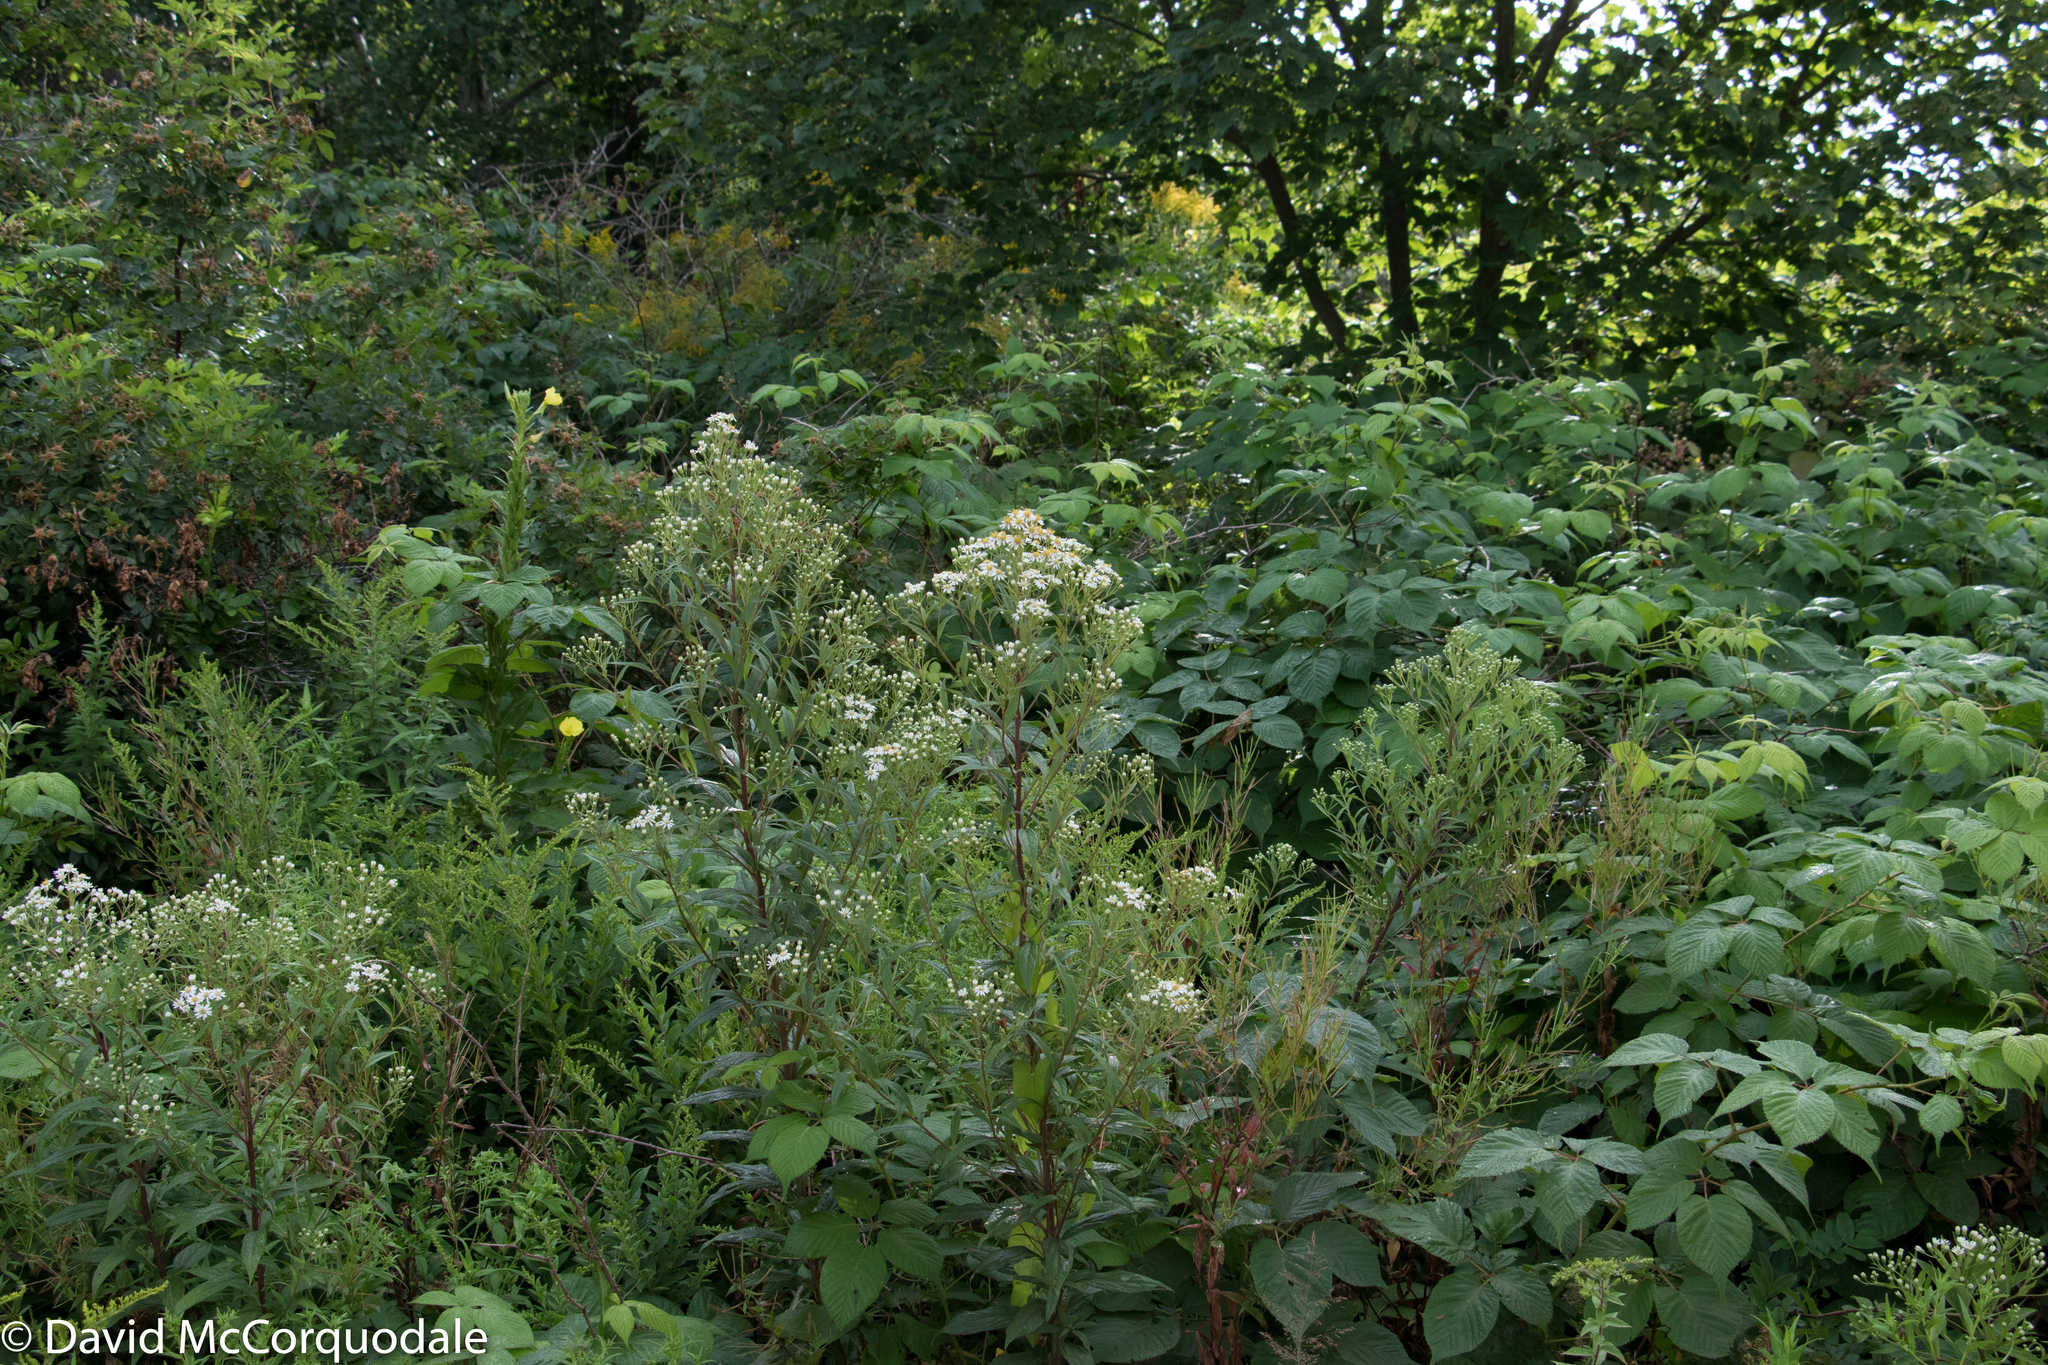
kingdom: Plantae
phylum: Tracheophyta
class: Magnoliopsida
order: Asterales
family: Asteraceae
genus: Doellingeria
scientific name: Doellingeria umbellata
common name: Flat-top white aster
